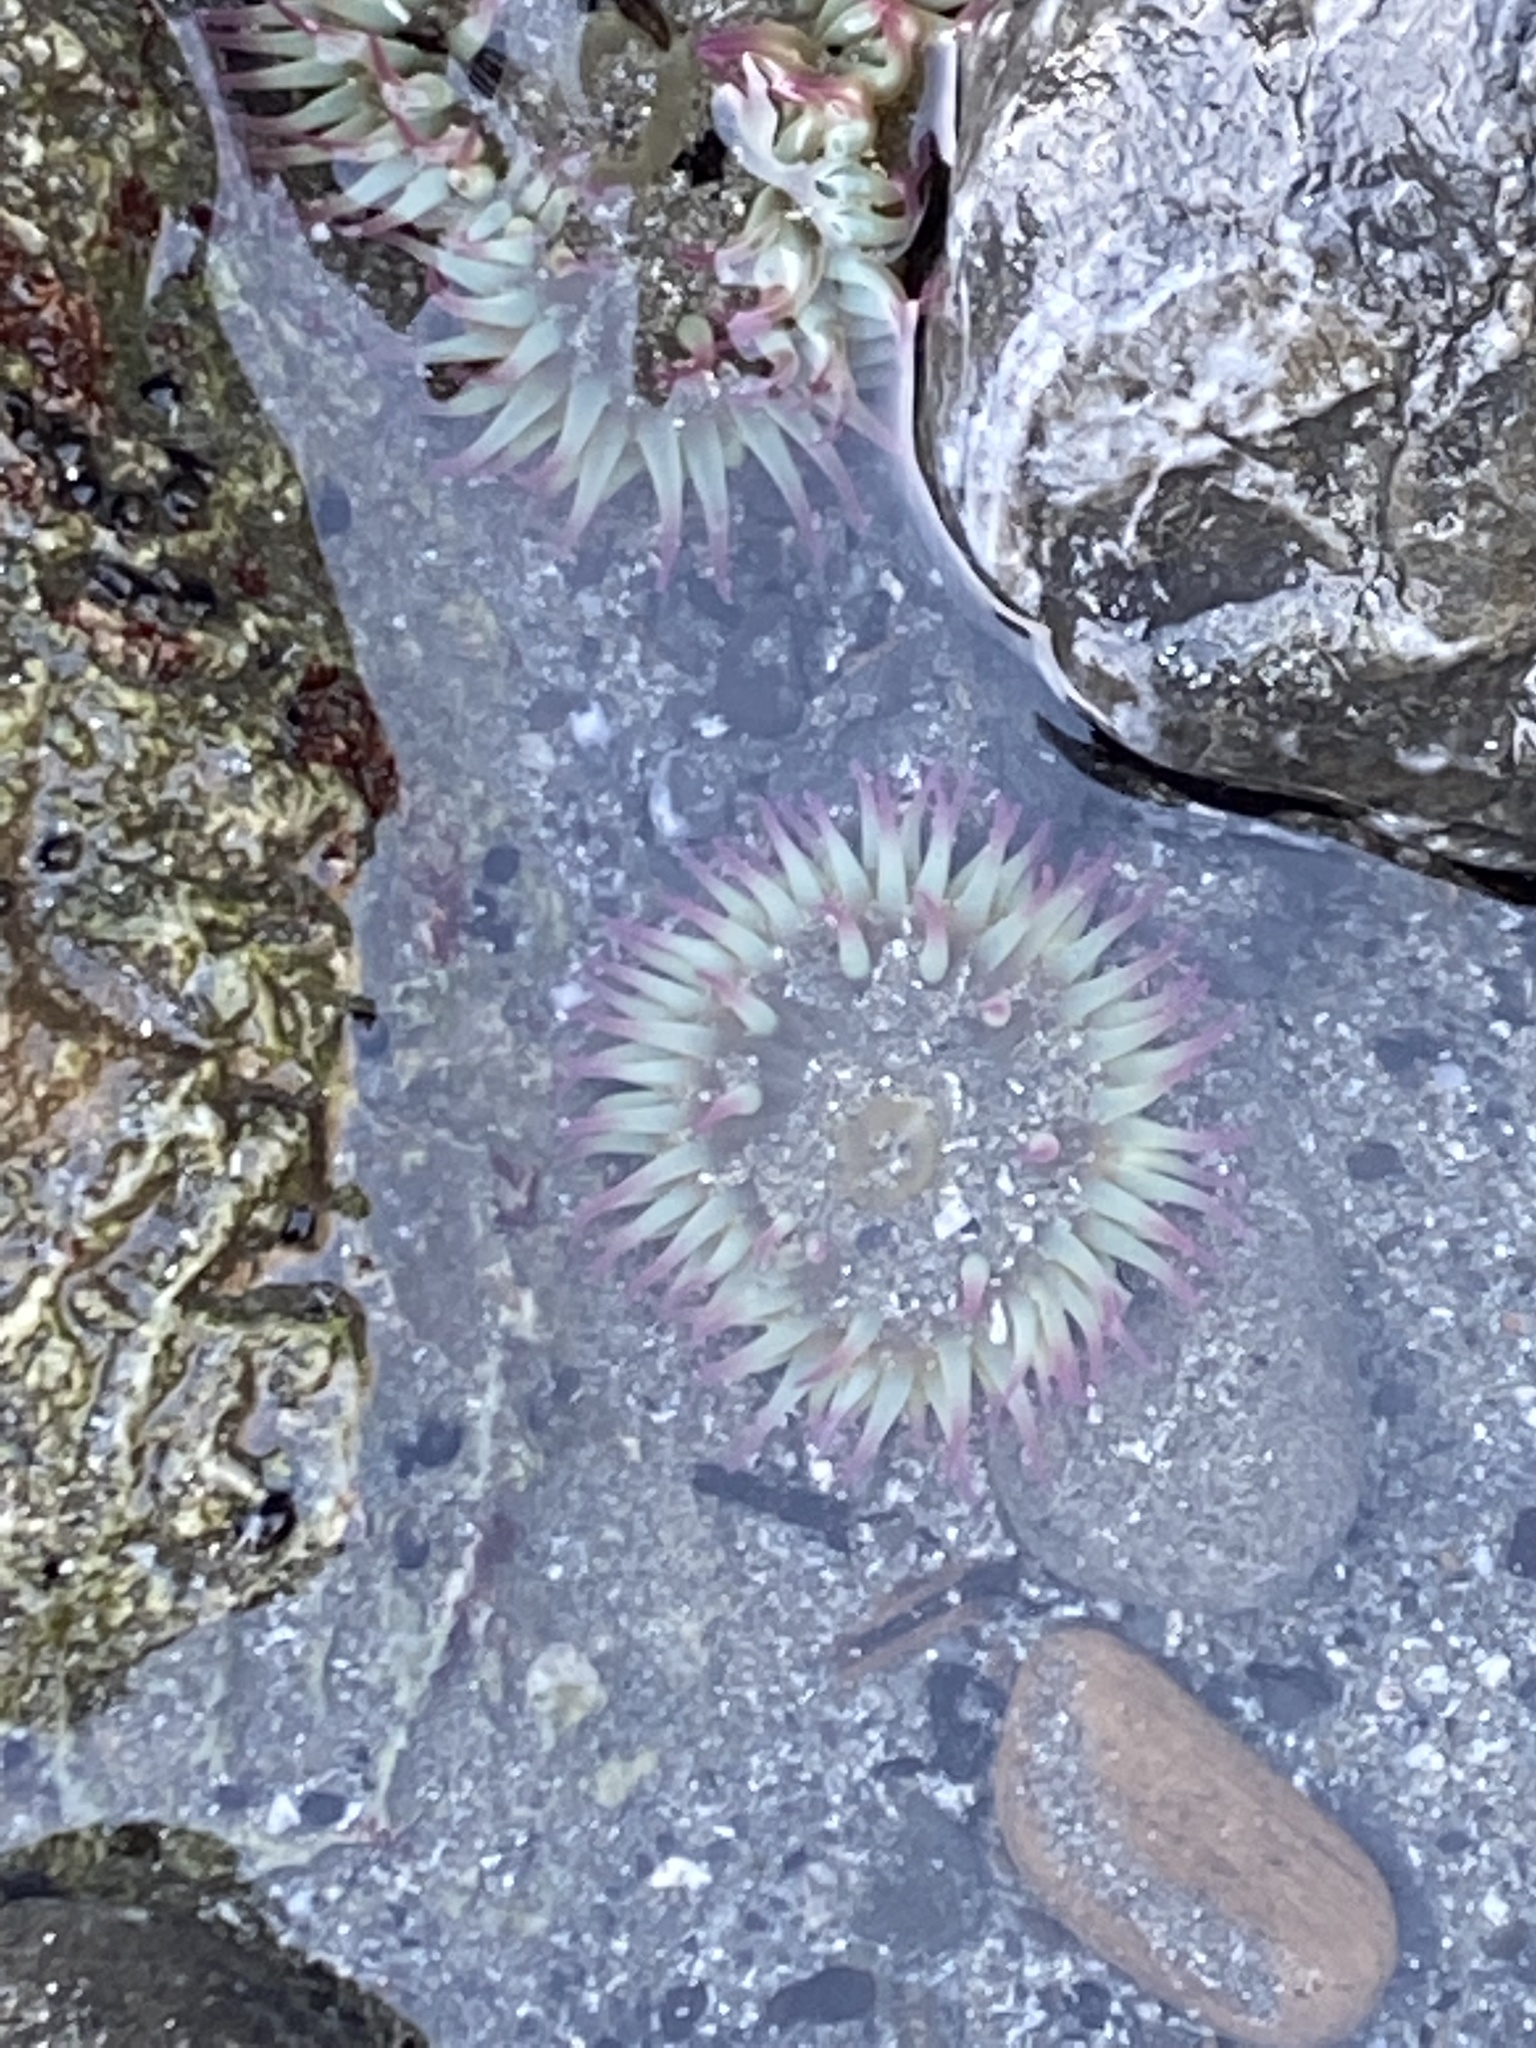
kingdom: Animalia
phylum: Cnidaria
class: Anthozoa
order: Actiniaria
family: Actiniidae
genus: Anthopleura
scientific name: Anthopleura elegantissima
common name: Clonal anemone
